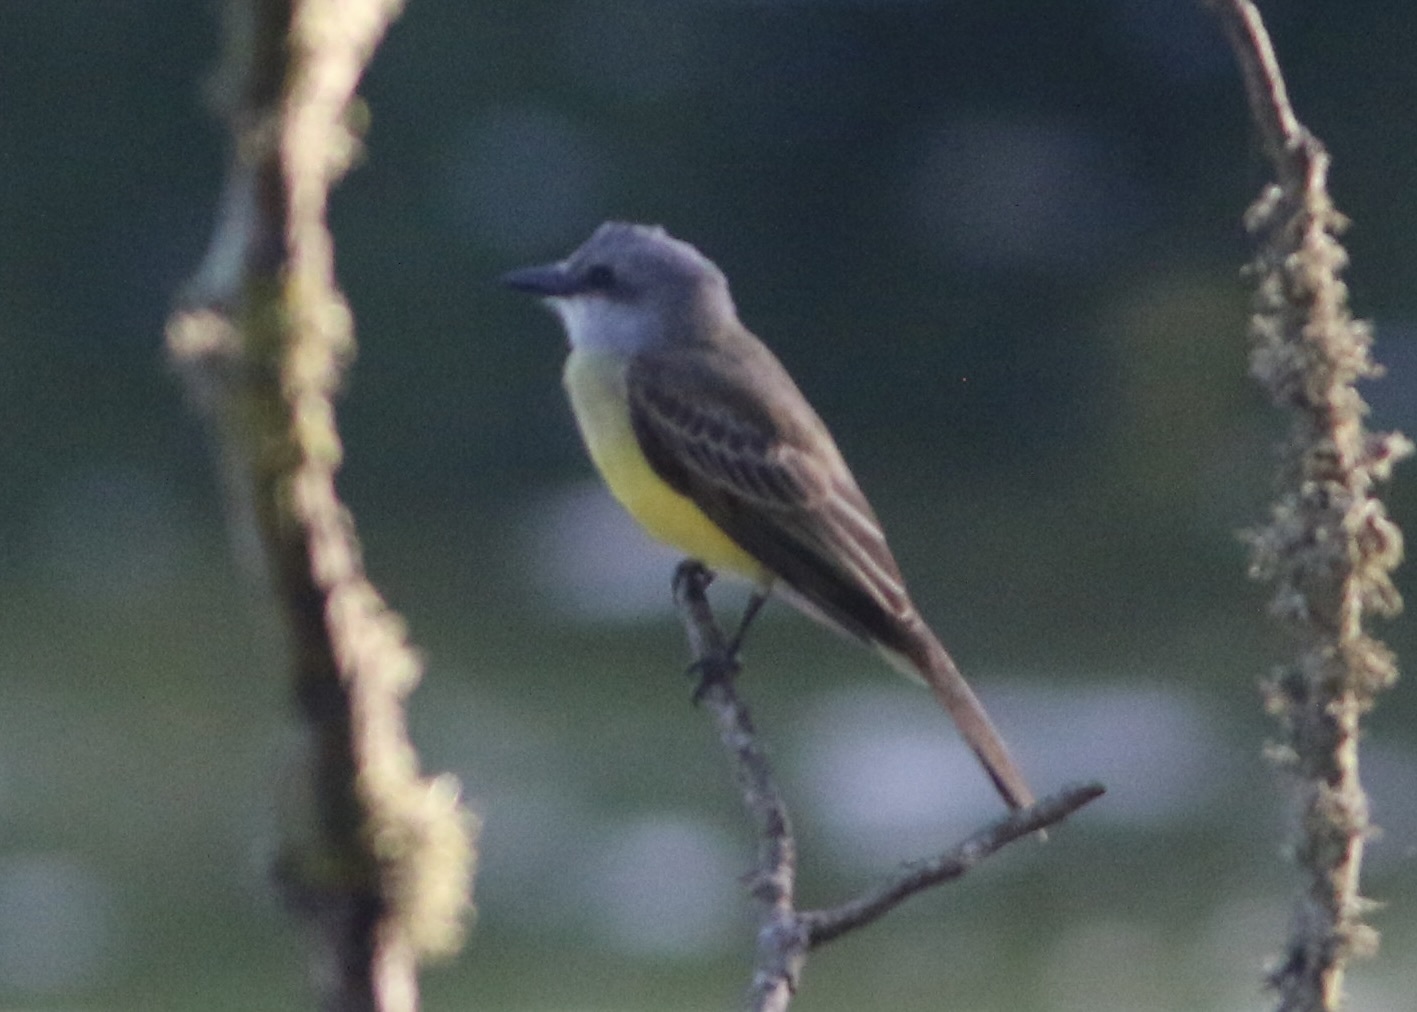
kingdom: Animalia
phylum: Chordata
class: Aves
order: Passeriformes
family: Tyrannidae
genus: Tyrannus
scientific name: Tyrannus melancholicus
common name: Tropical kingbird
